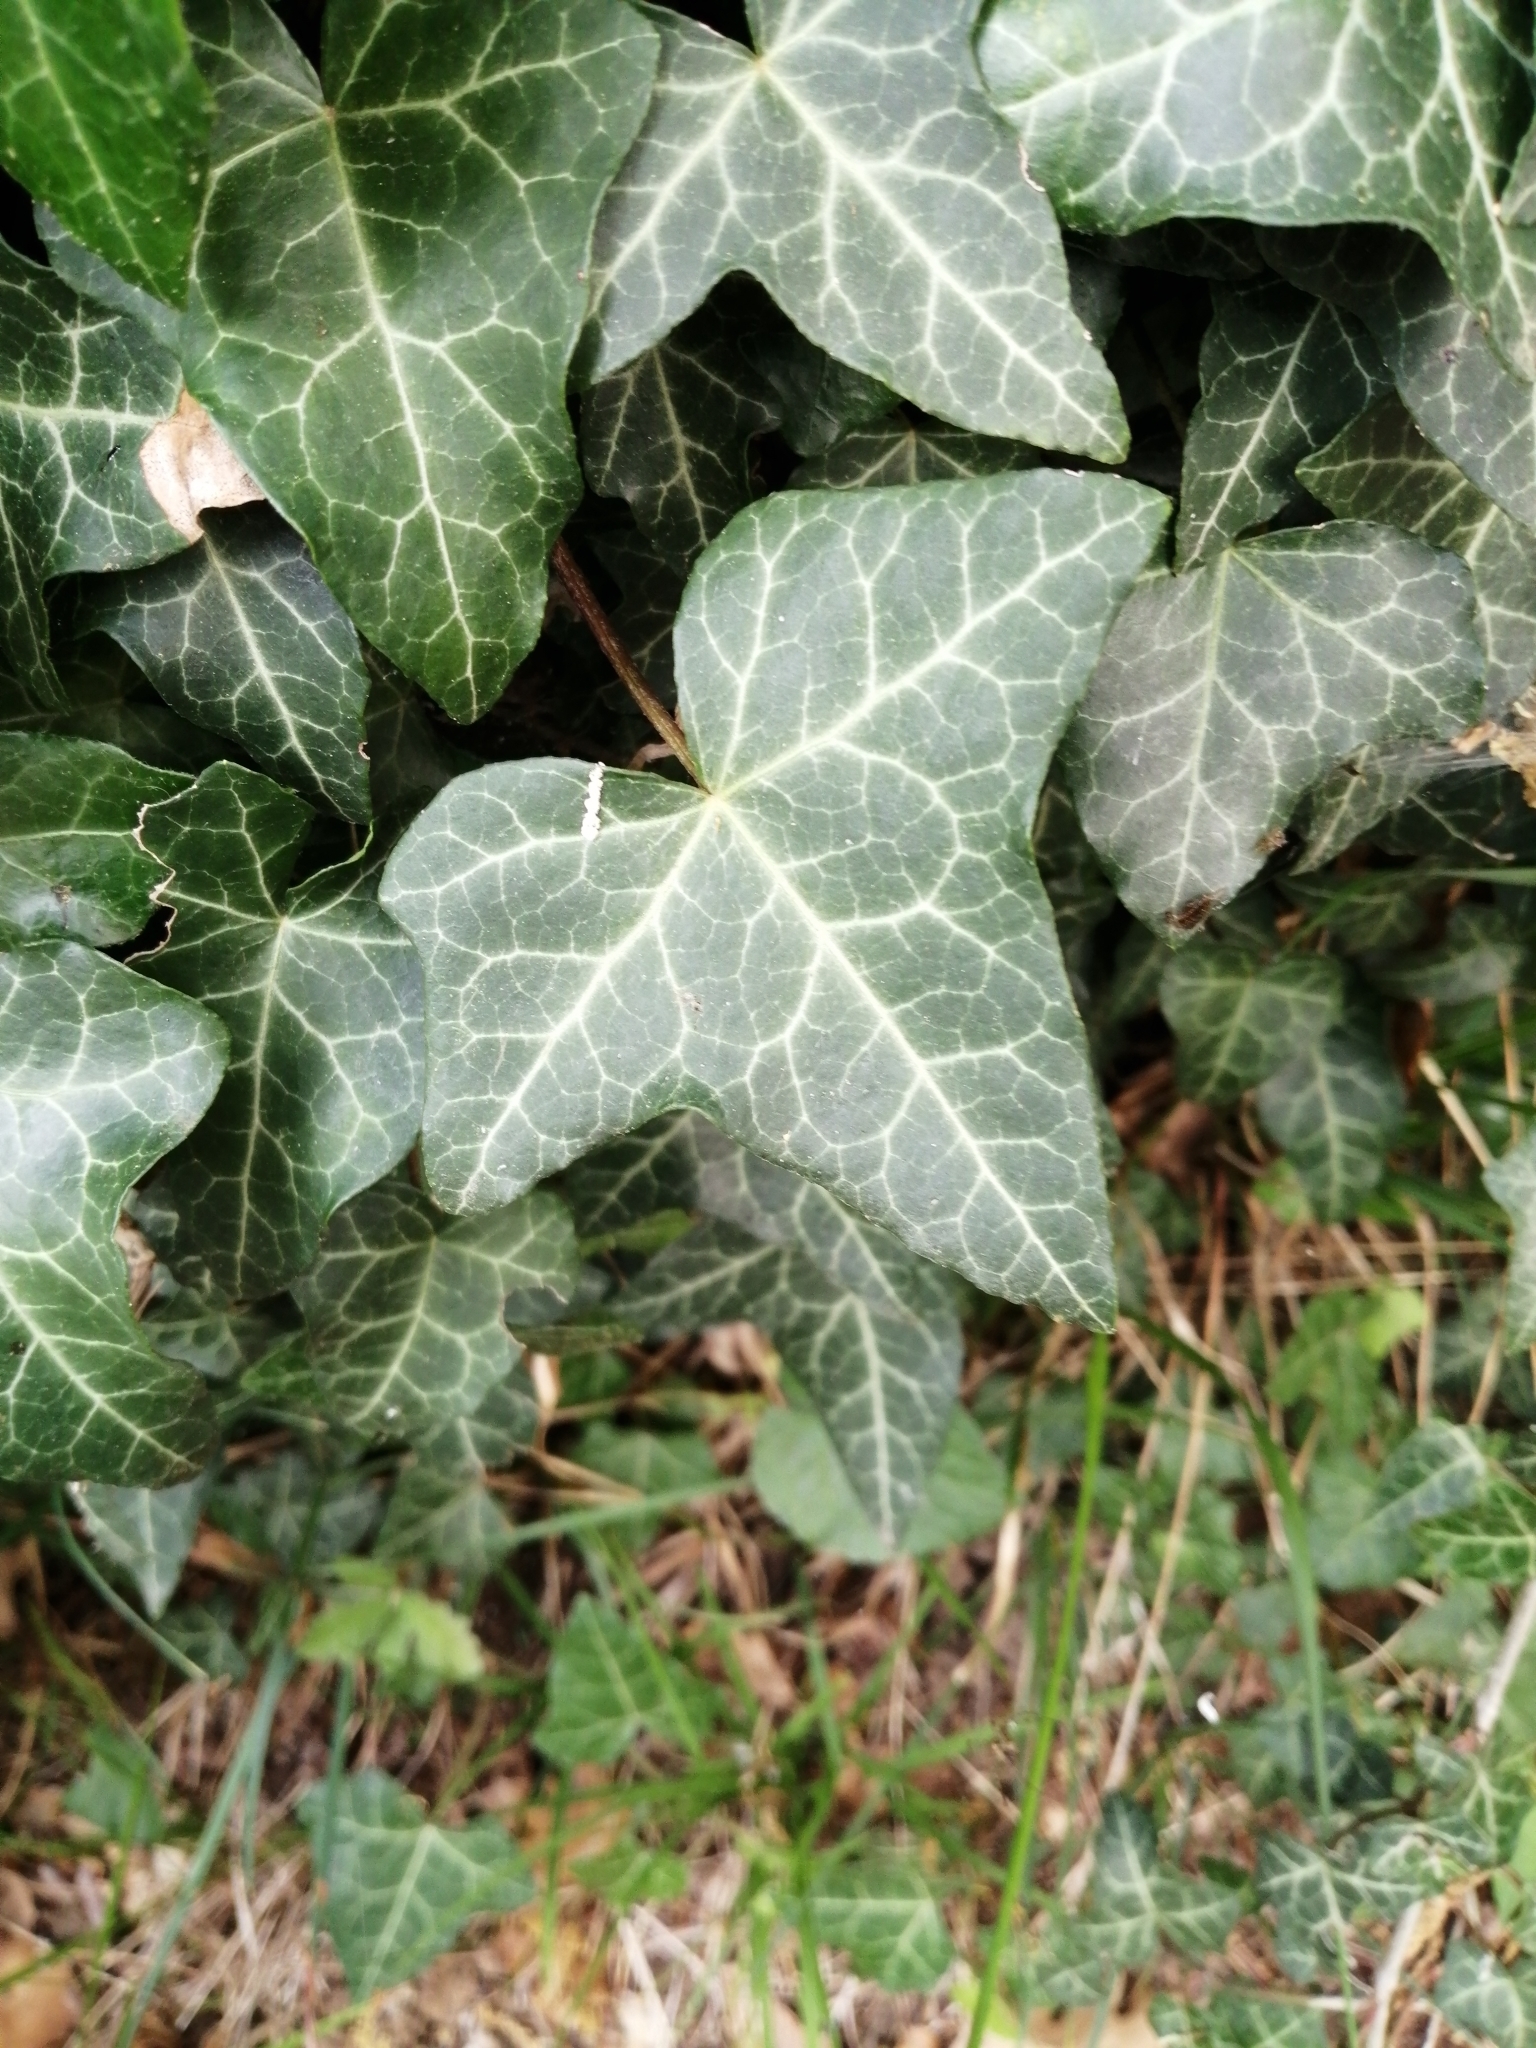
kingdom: Plantae
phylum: Tracheophyta
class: Magnoliopsida
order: Apiales
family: Araliaceae
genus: Hedera
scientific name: Hedera helix
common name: Ivy
